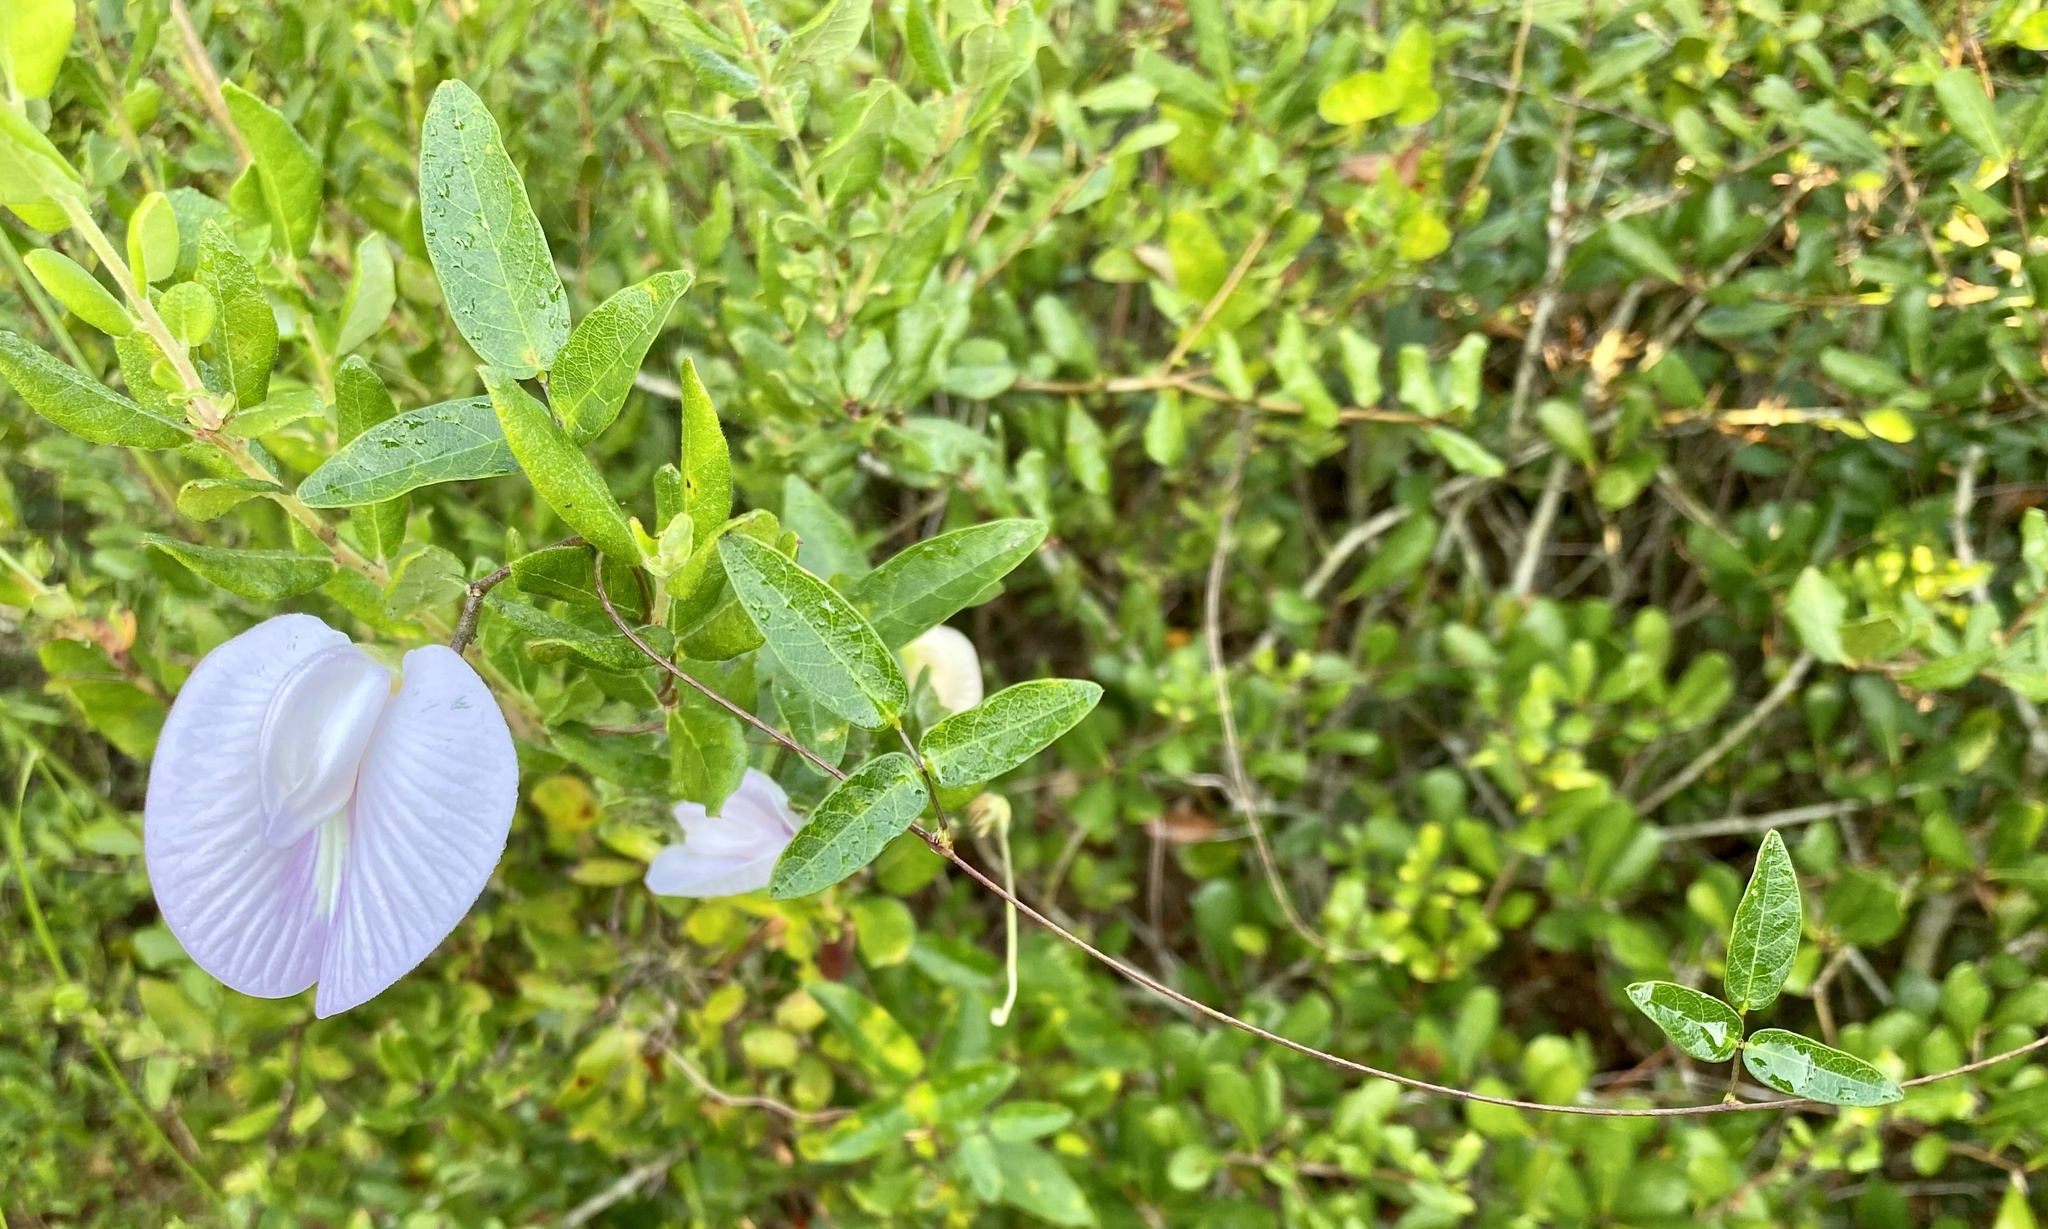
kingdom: Plantae
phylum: Tracheophyta
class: Magnoliopsida
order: Fabales
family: Fabaceae
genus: Centrosema
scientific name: Centrosema arenicola
